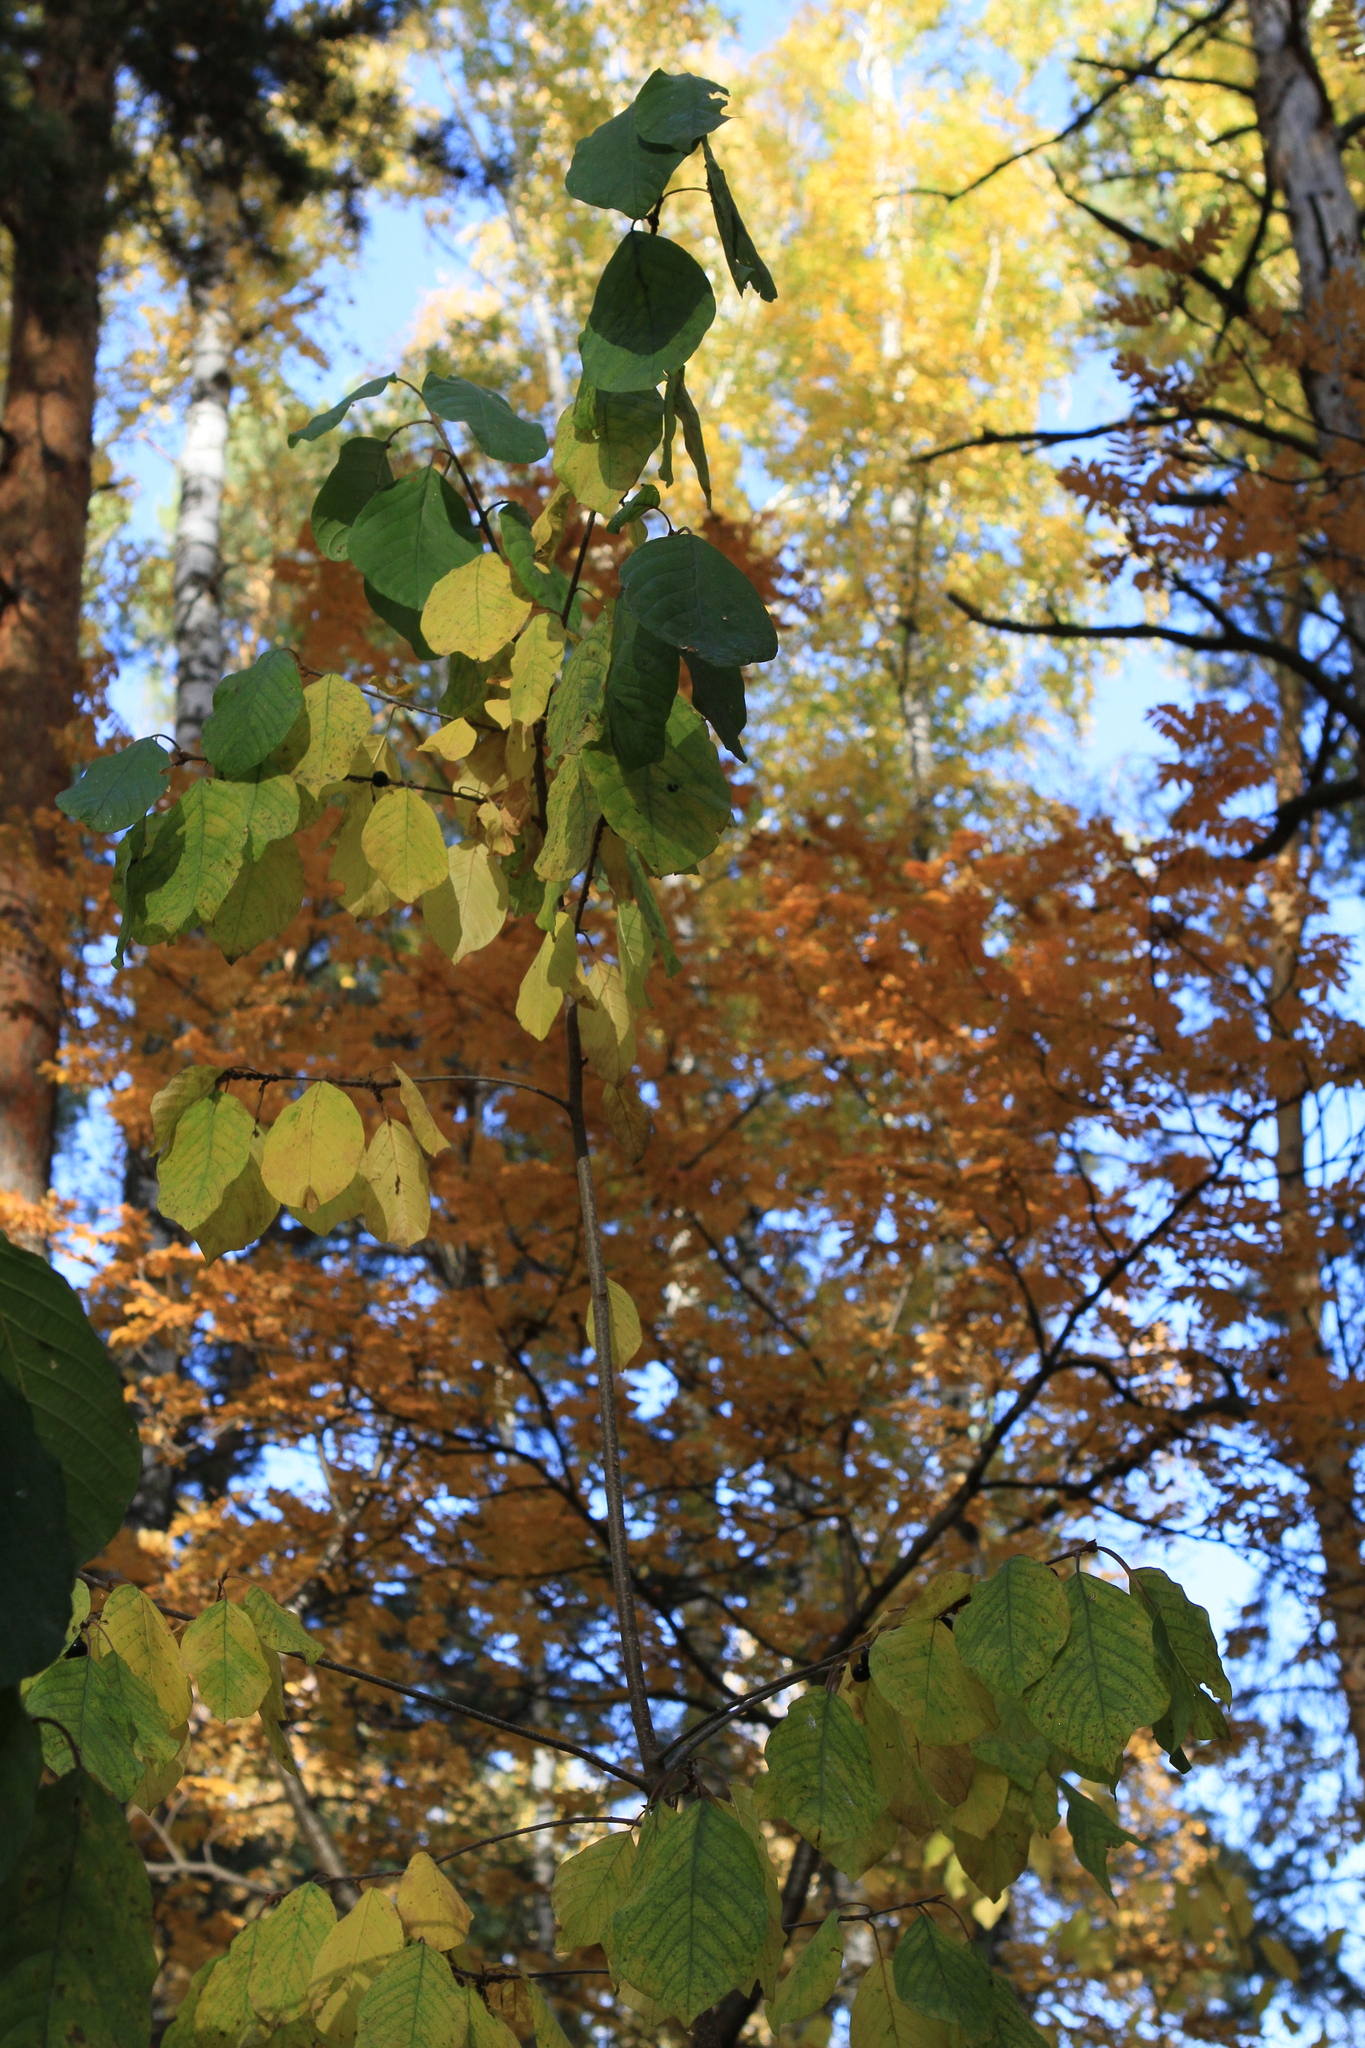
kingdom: Plantae
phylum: Tracheophyta
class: Magnoliopsida
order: Rosales
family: Rhamnaceae
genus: Frangula
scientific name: Frangula alnus
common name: Alder buckthorn
